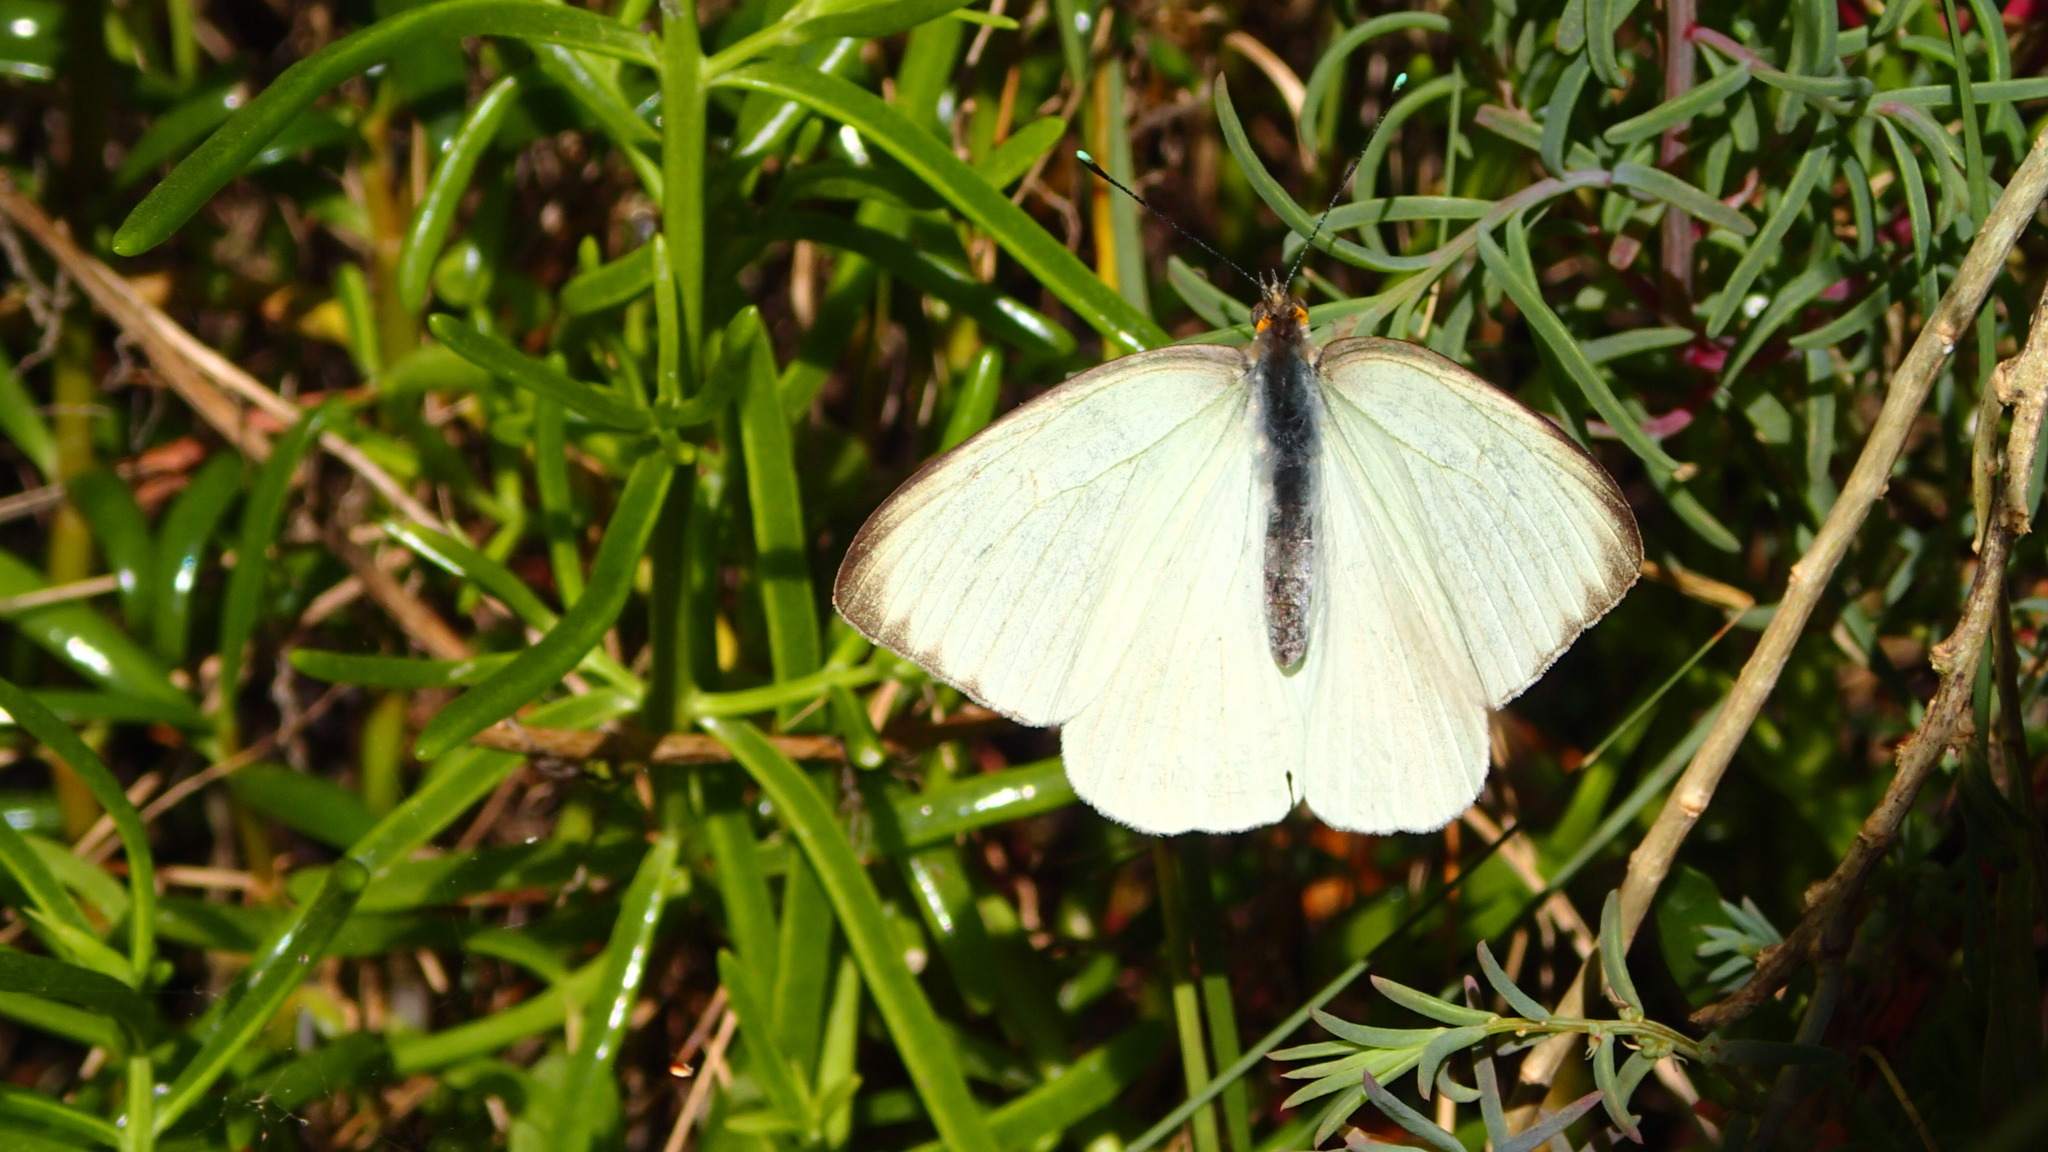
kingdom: Animalia
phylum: Arthropoda
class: Insecta
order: Lepidoptera
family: Pieridae
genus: Ascia
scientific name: Ascia monuste
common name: Great southern white
